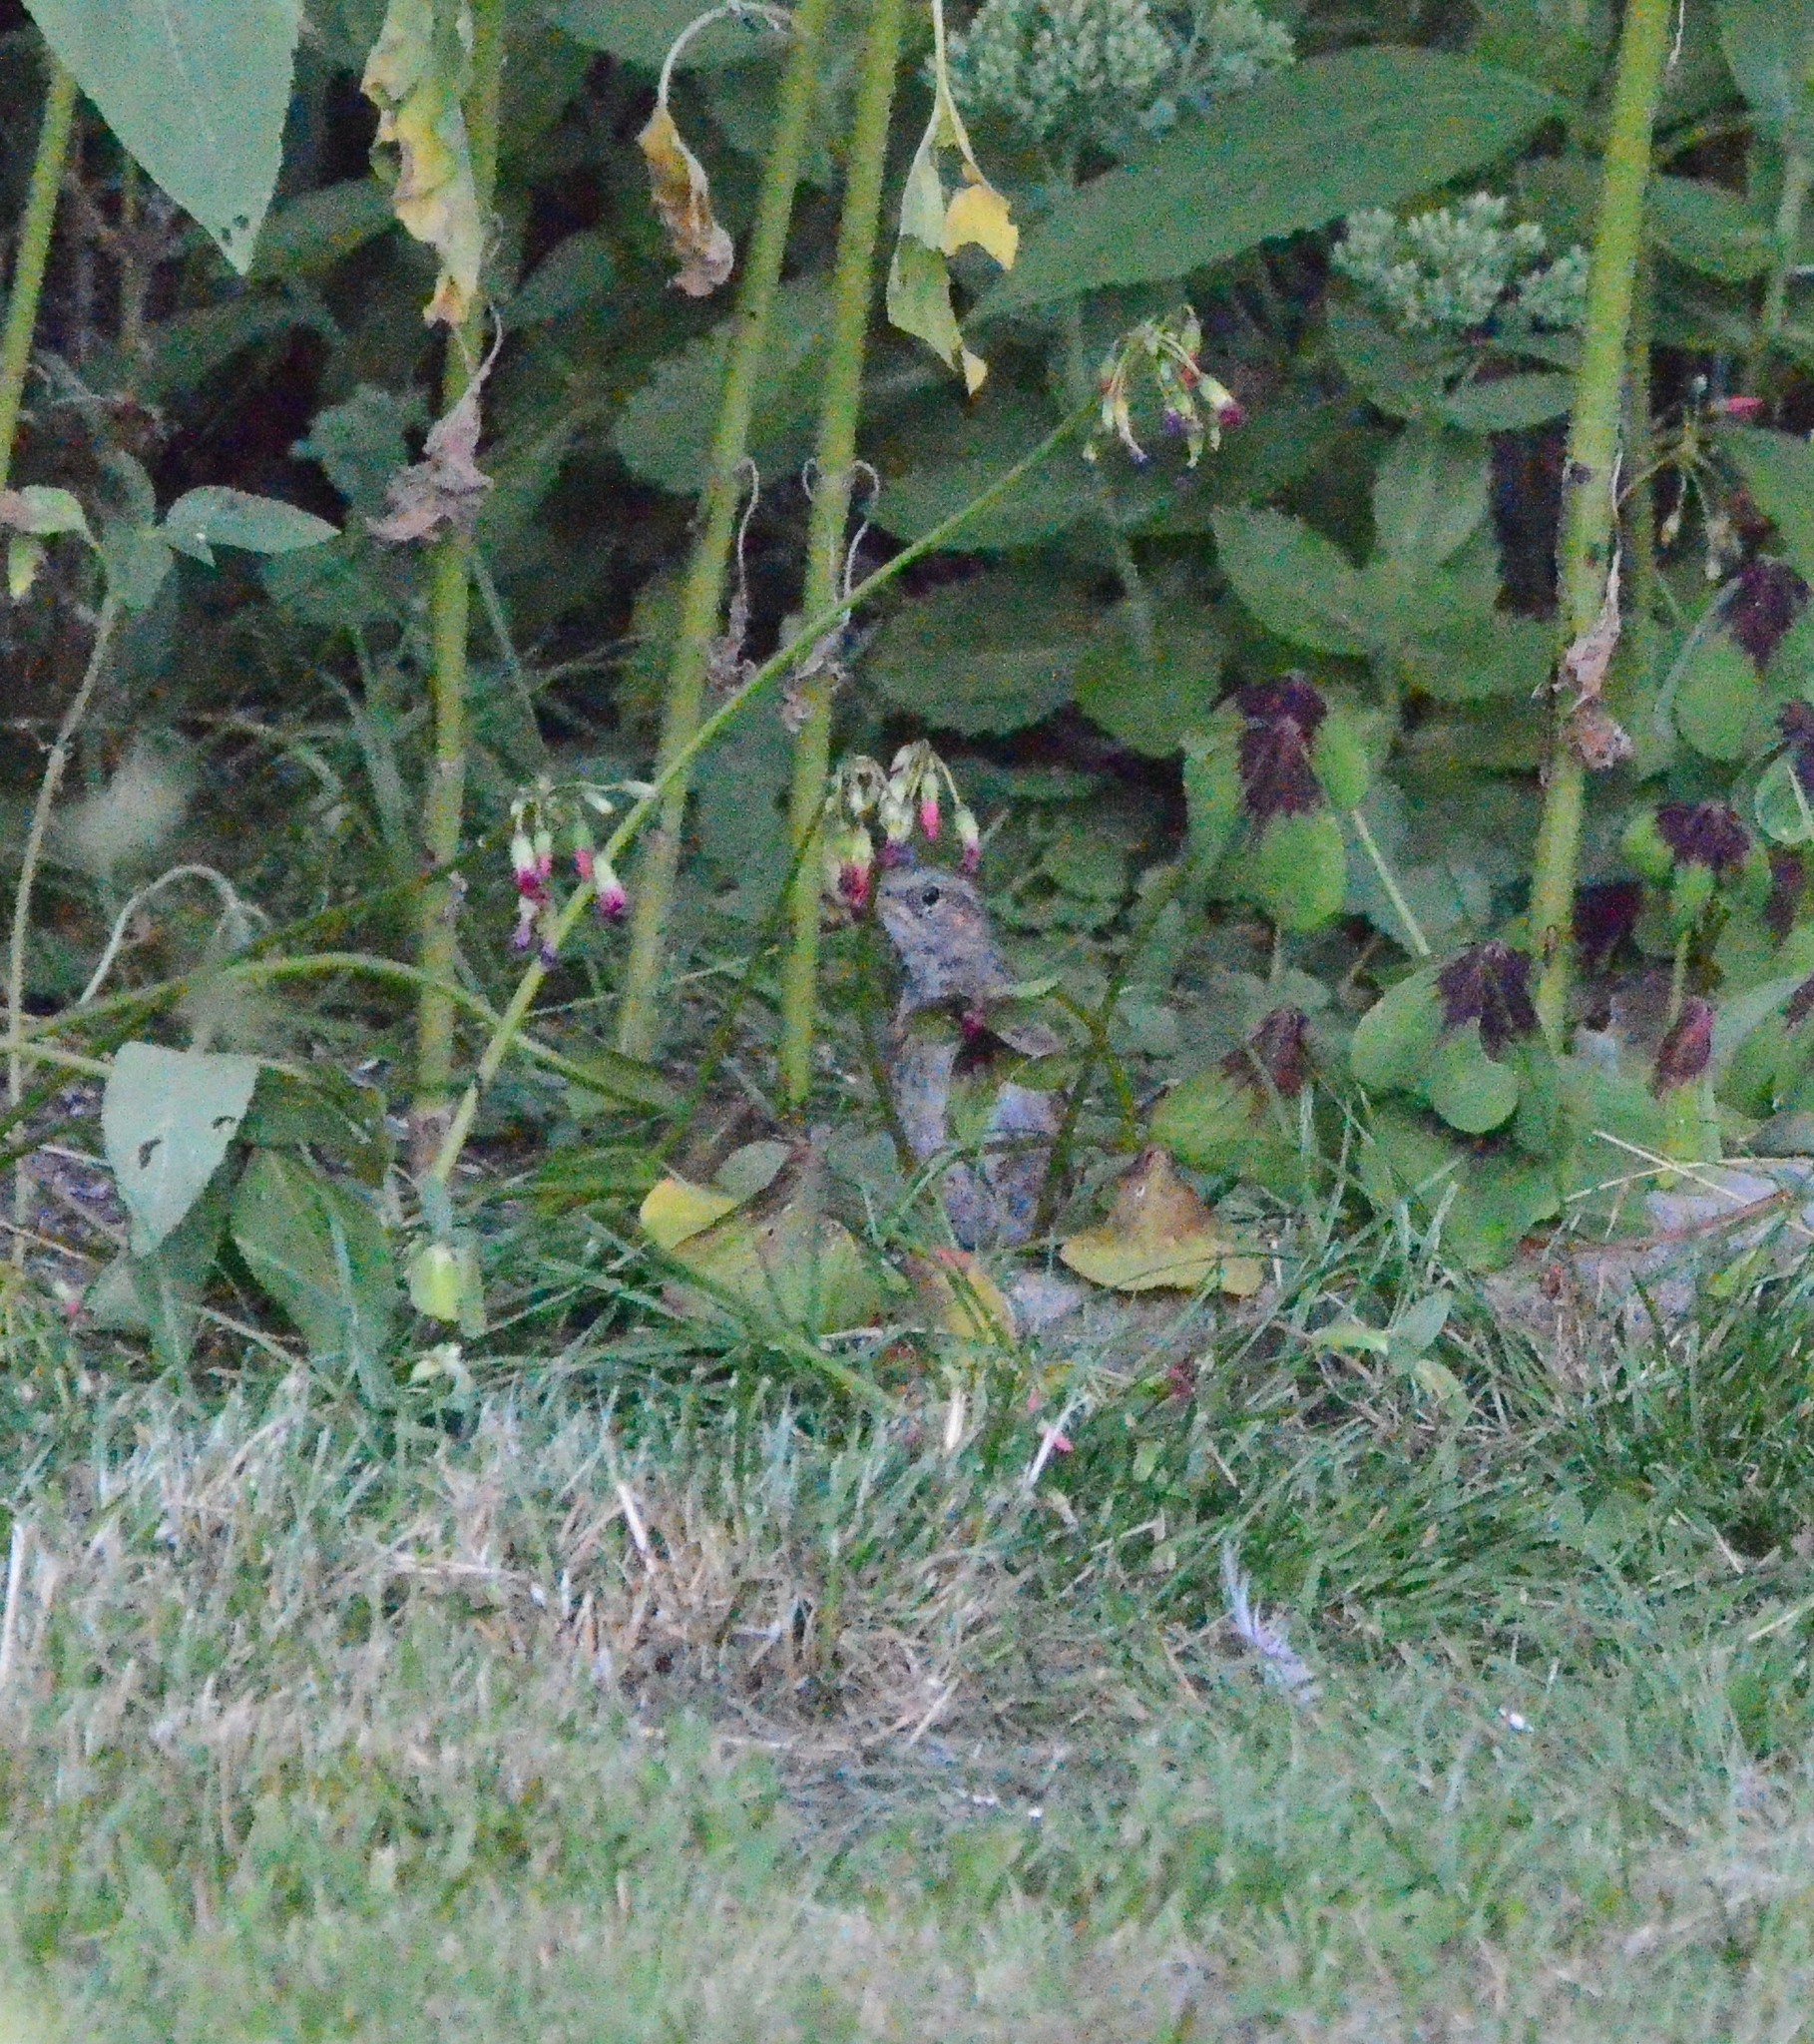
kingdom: Animalia
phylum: Chordata
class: Aves
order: Passeriformes
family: Prunellidae
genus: Prunella
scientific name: Prunella modularis
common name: Dunnock
